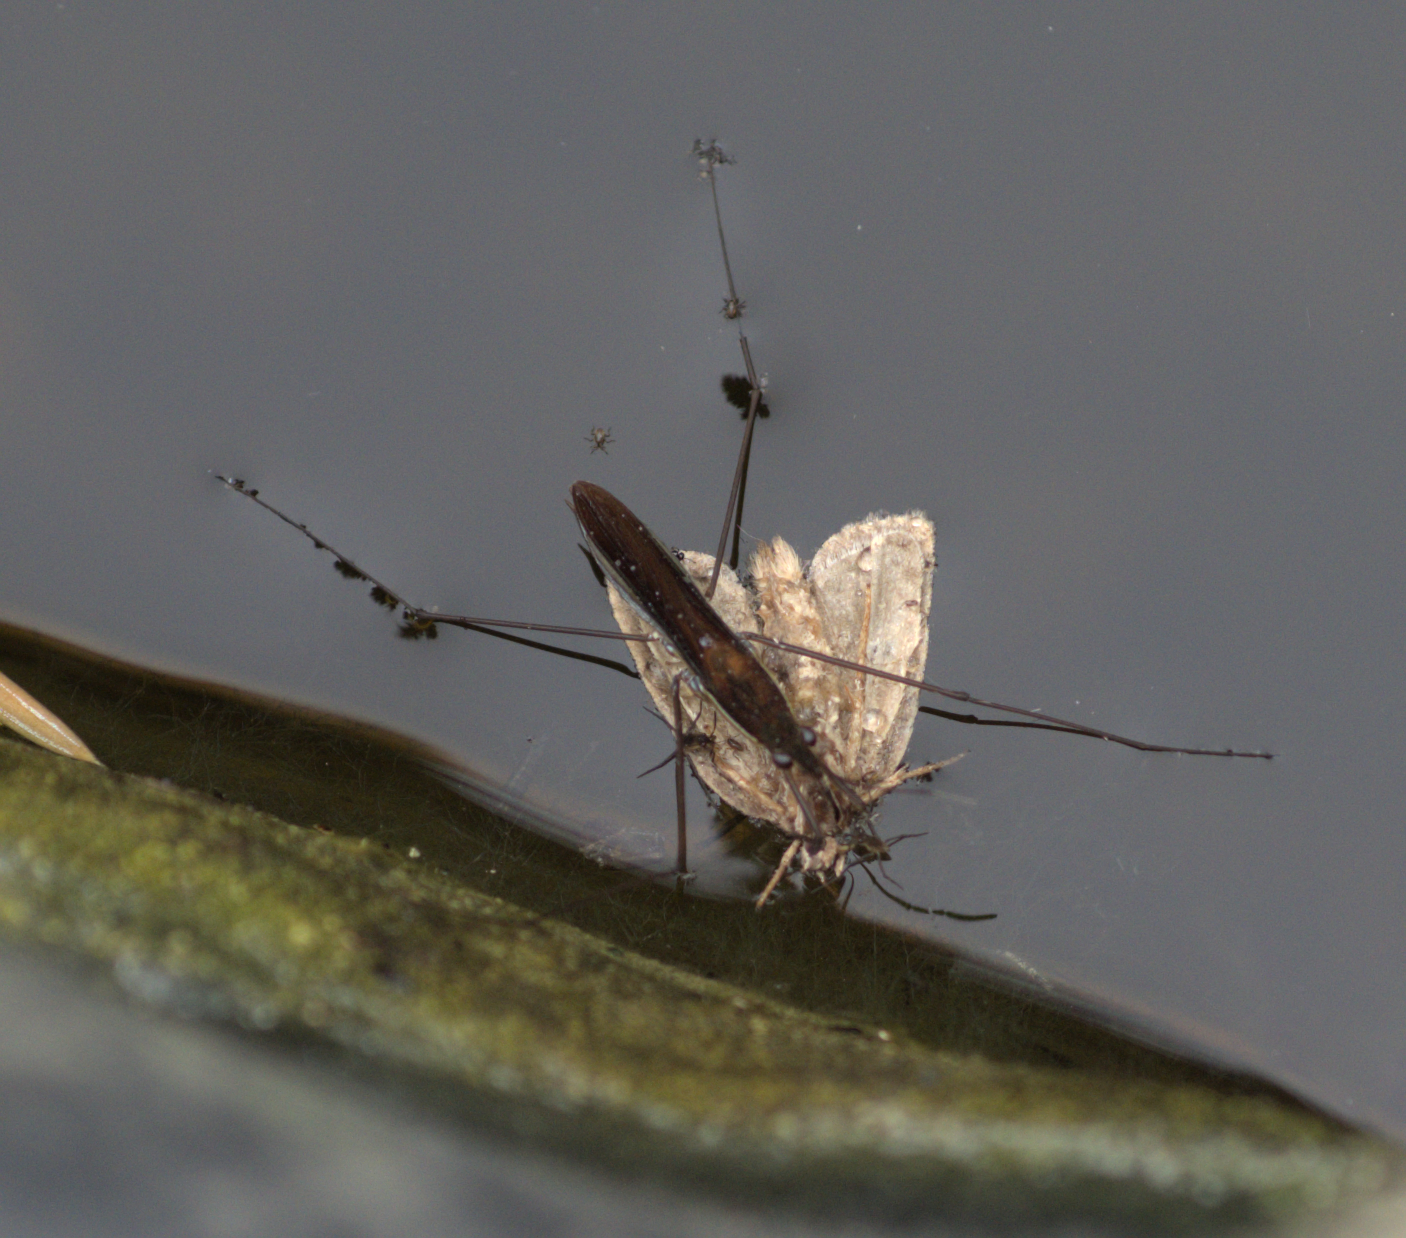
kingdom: Animalia
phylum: Arthropoda
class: Insecta
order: Hemiptera
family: Gerridae
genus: Limnoporus
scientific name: Limnoporus dissortis
